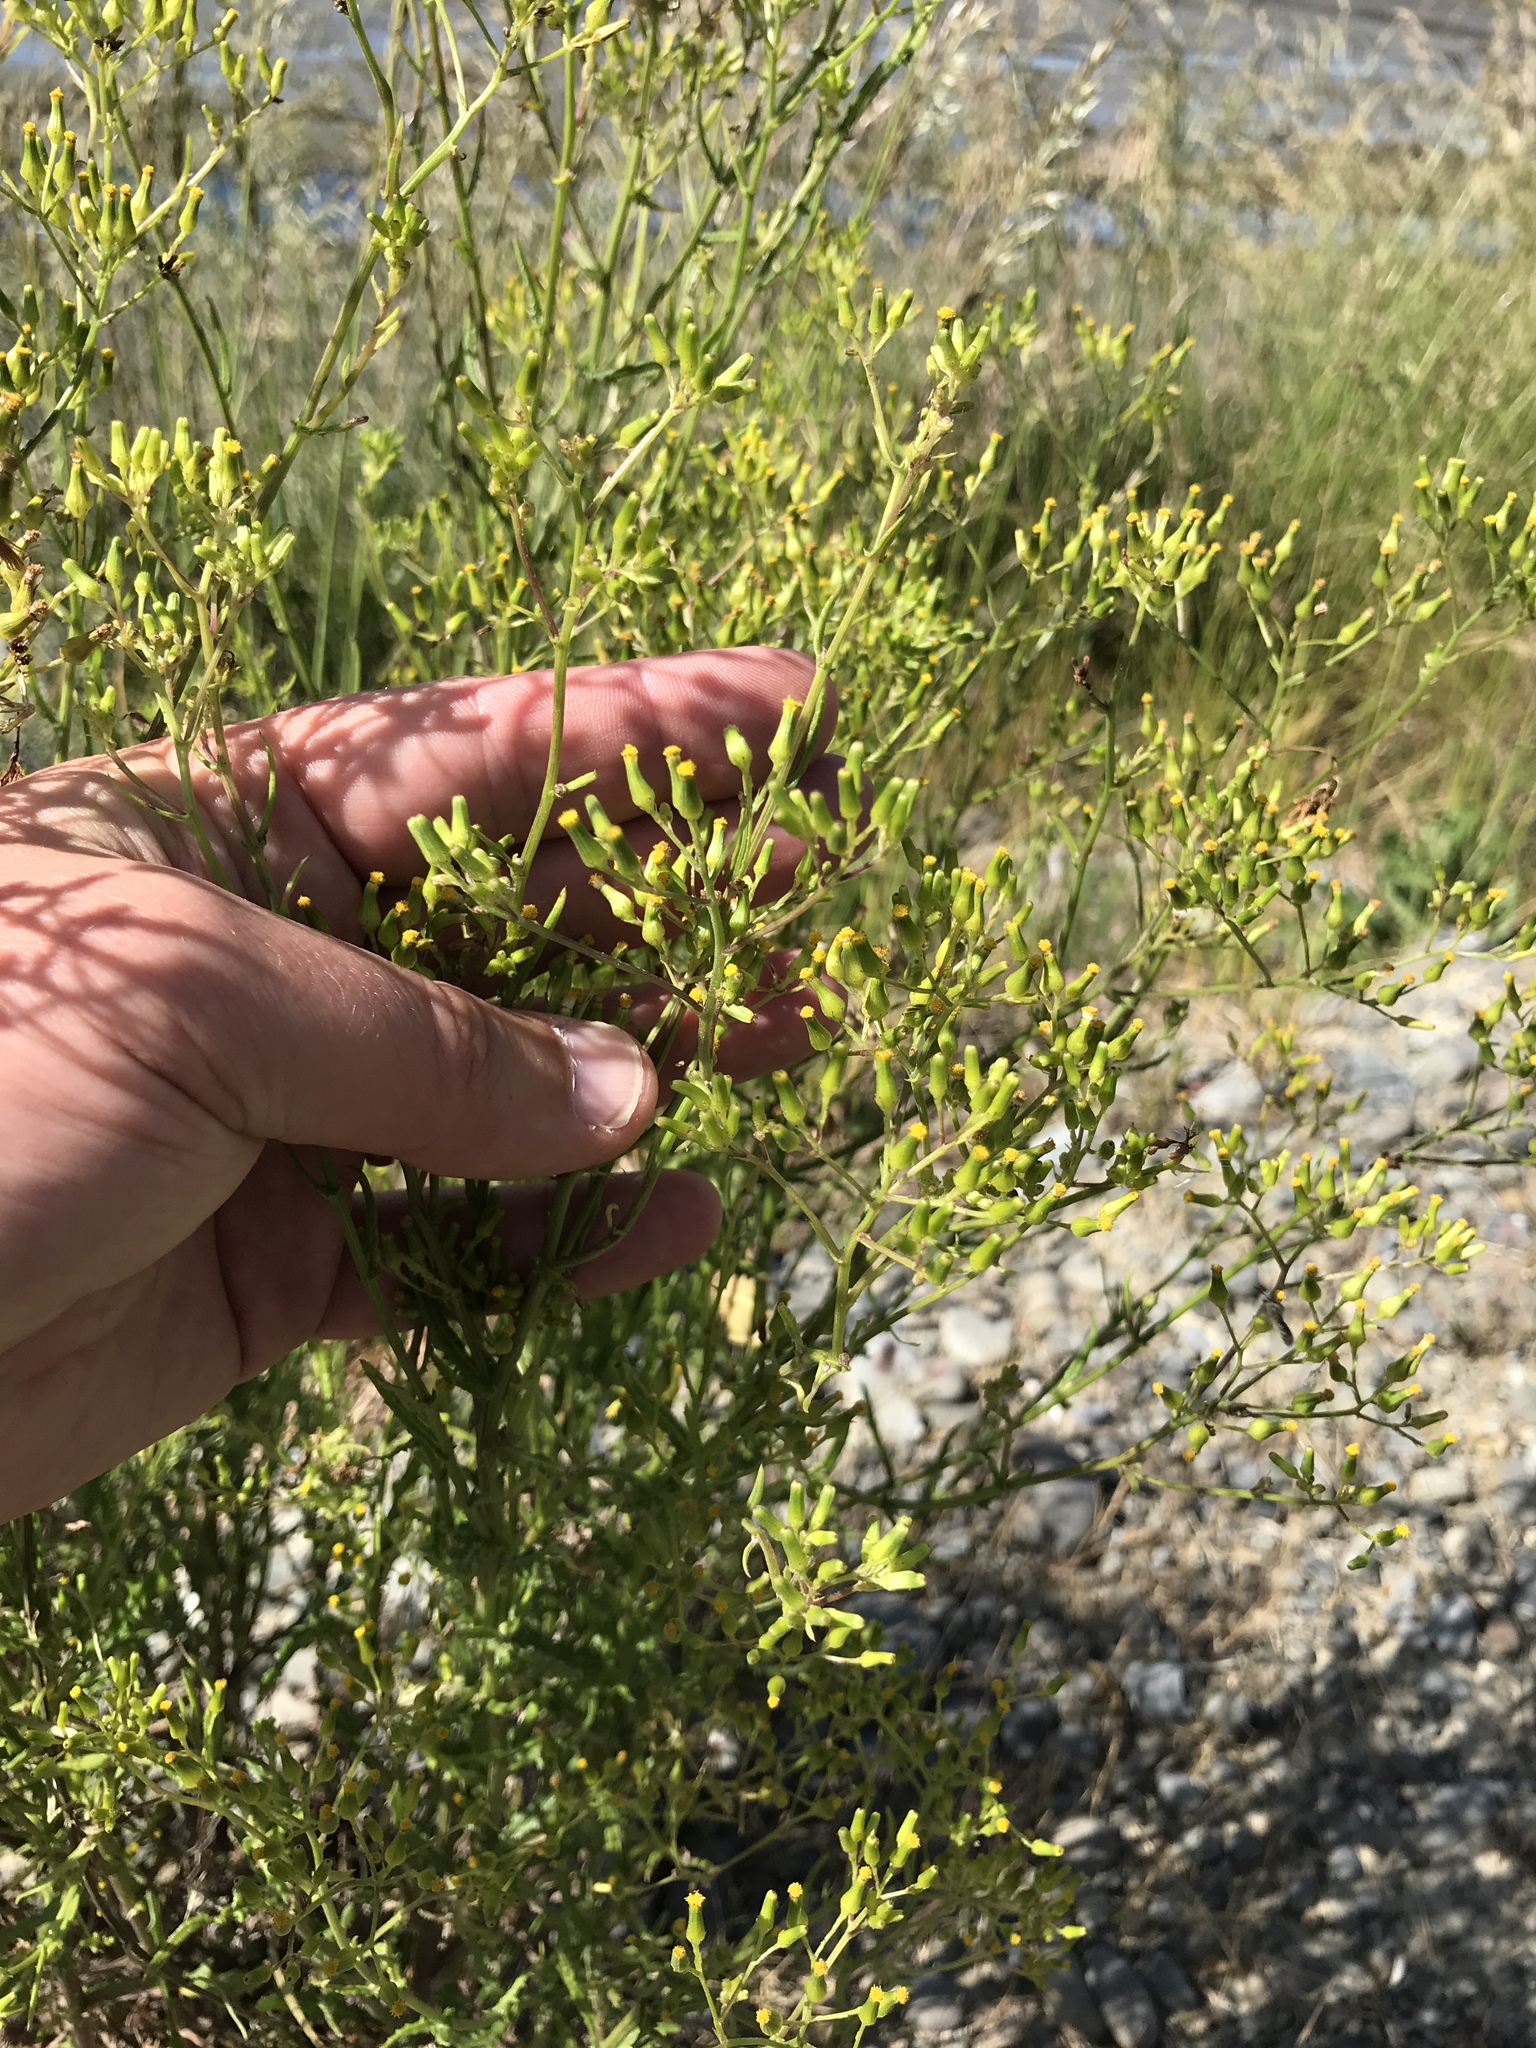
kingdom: Plantae
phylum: Tracheophyta
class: Magnoliopsida
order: Asterales
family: Asteraceae
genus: Senecio
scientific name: Senecio hispidulus
